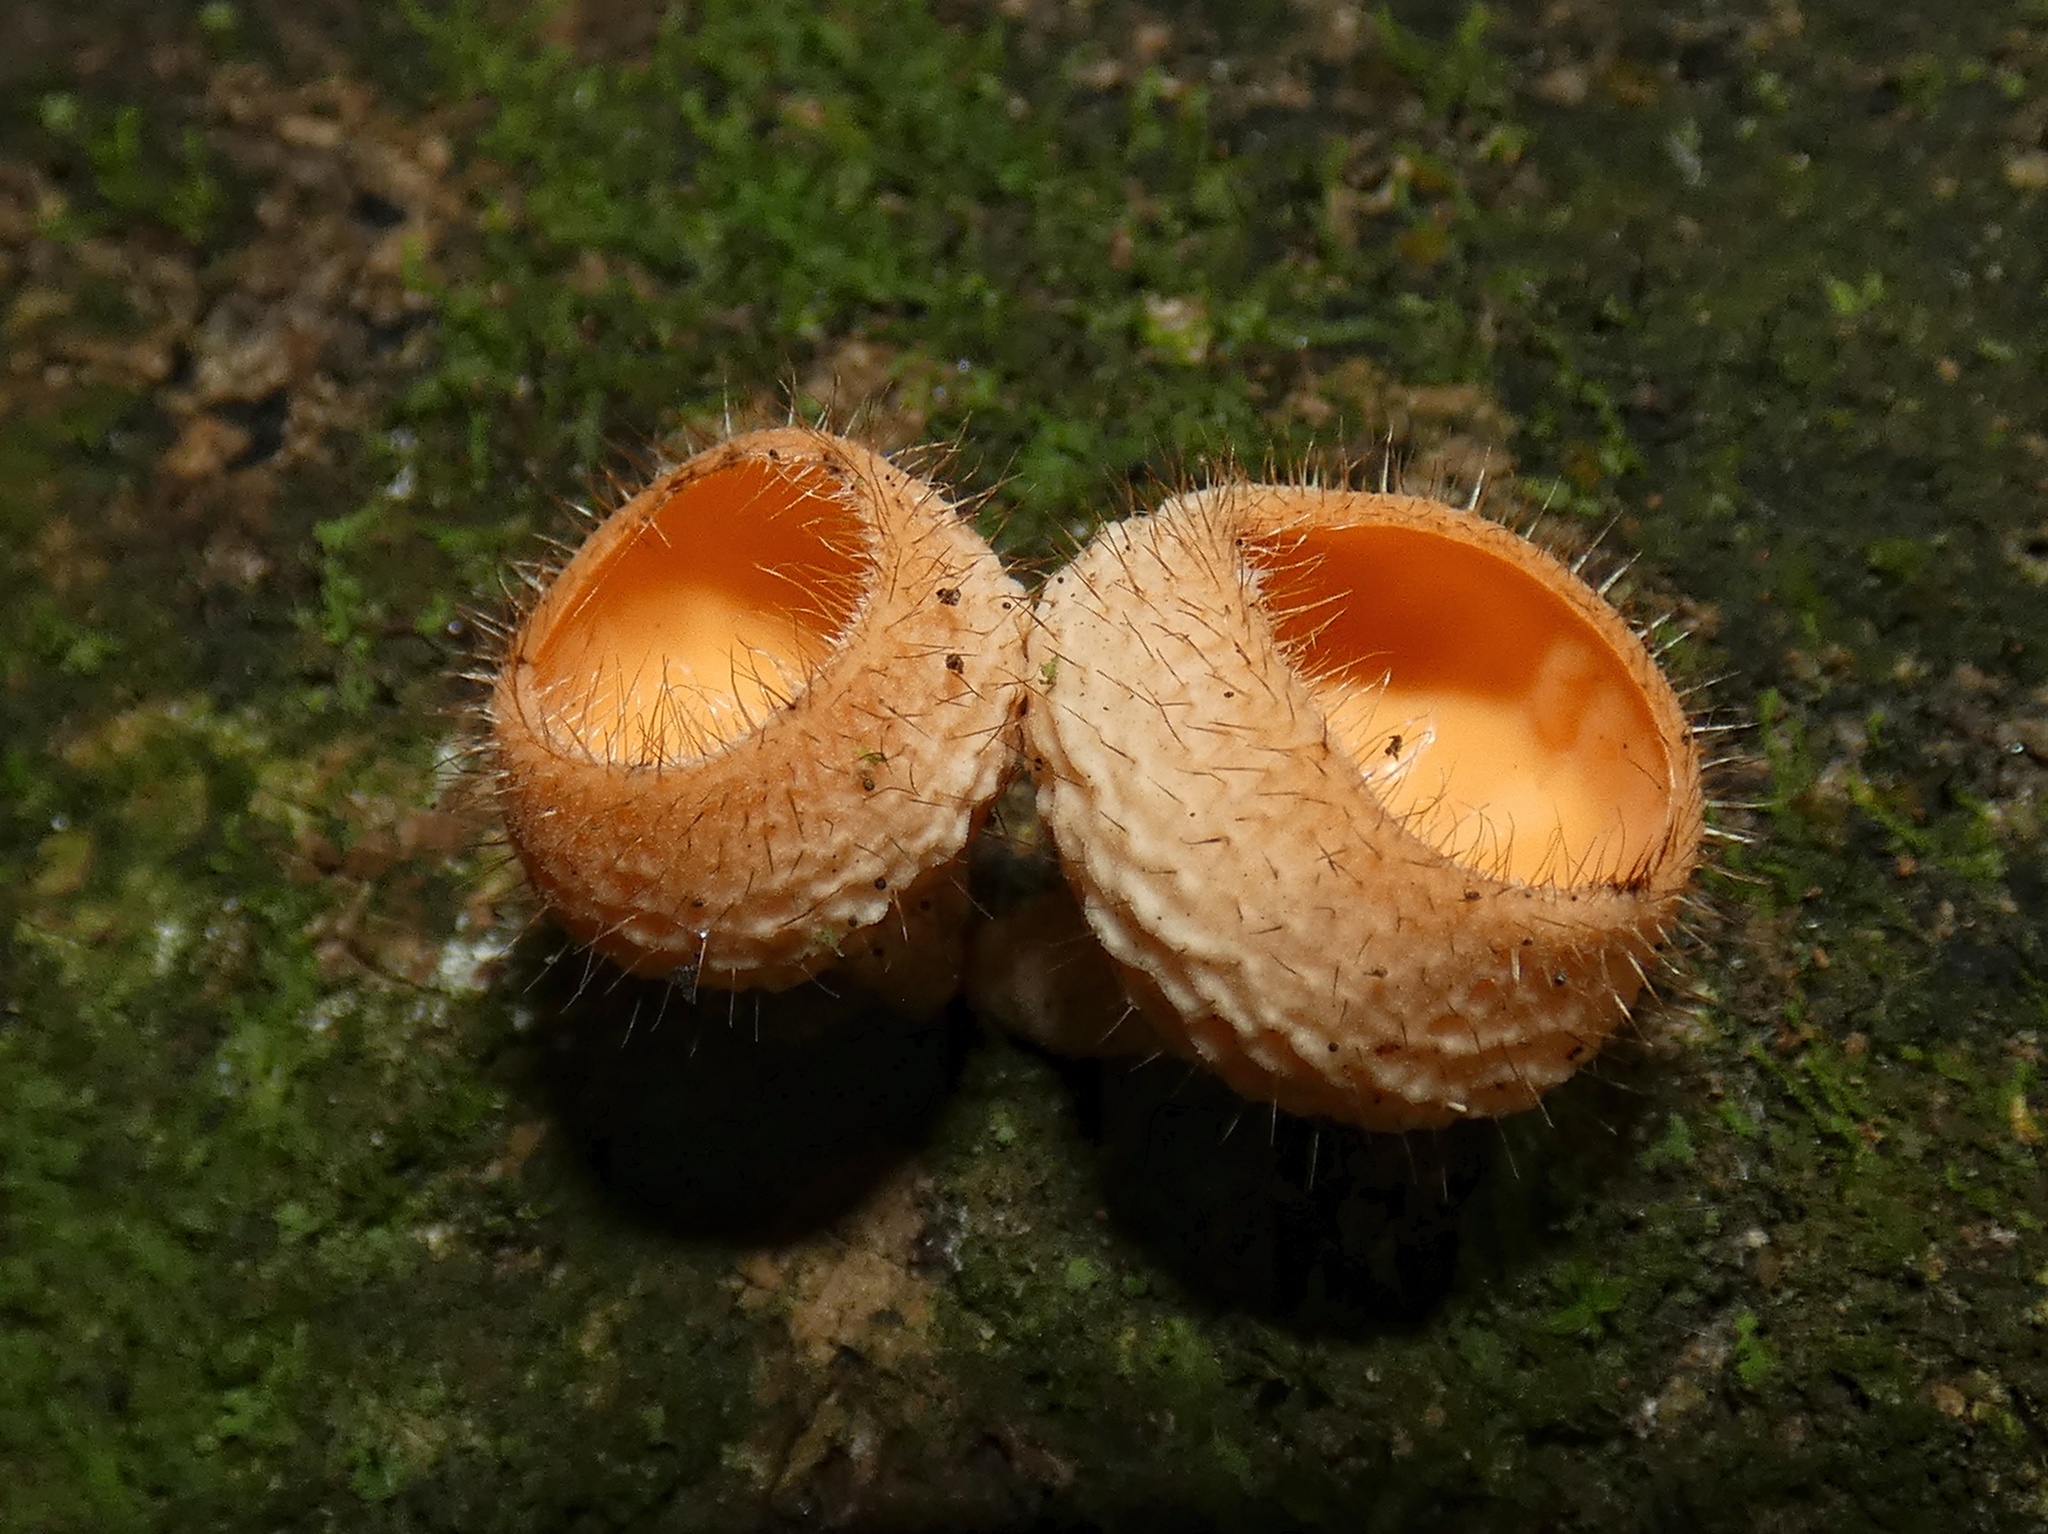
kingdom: Fungi
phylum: Ascomycota
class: Pezizomycetes
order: Pezizales
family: Sarcoscyphaceae
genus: Cookeina
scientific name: Cookeina tricholoma
